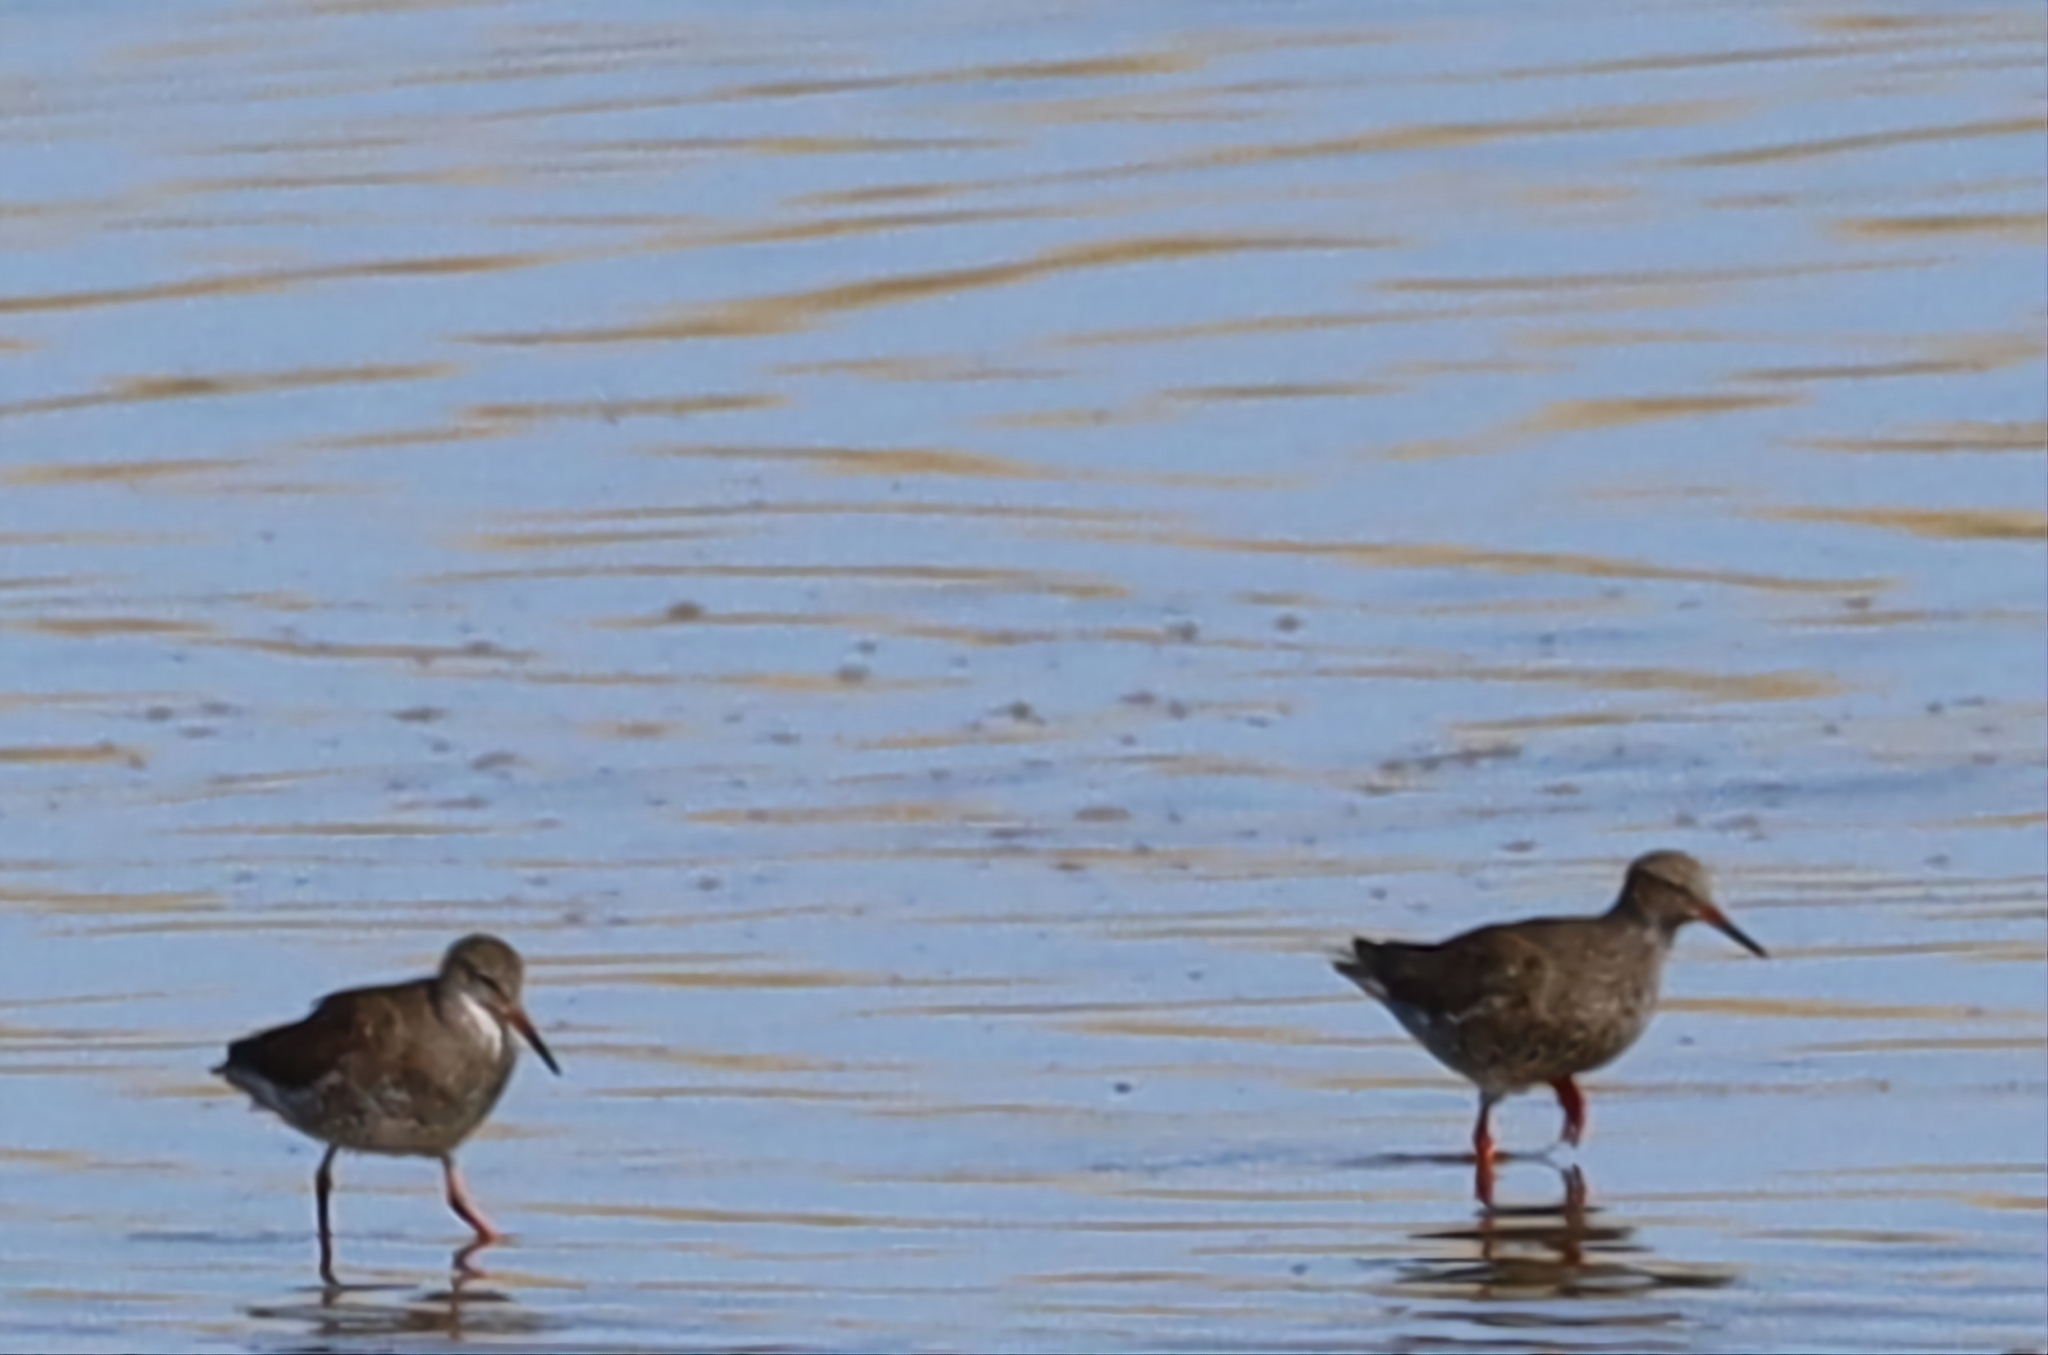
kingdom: Animalia
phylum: Chordata
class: Aves
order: Charadriiformes
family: Scolopacidae
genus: Tringa
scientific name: Tringa totanus
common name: Common redshank
